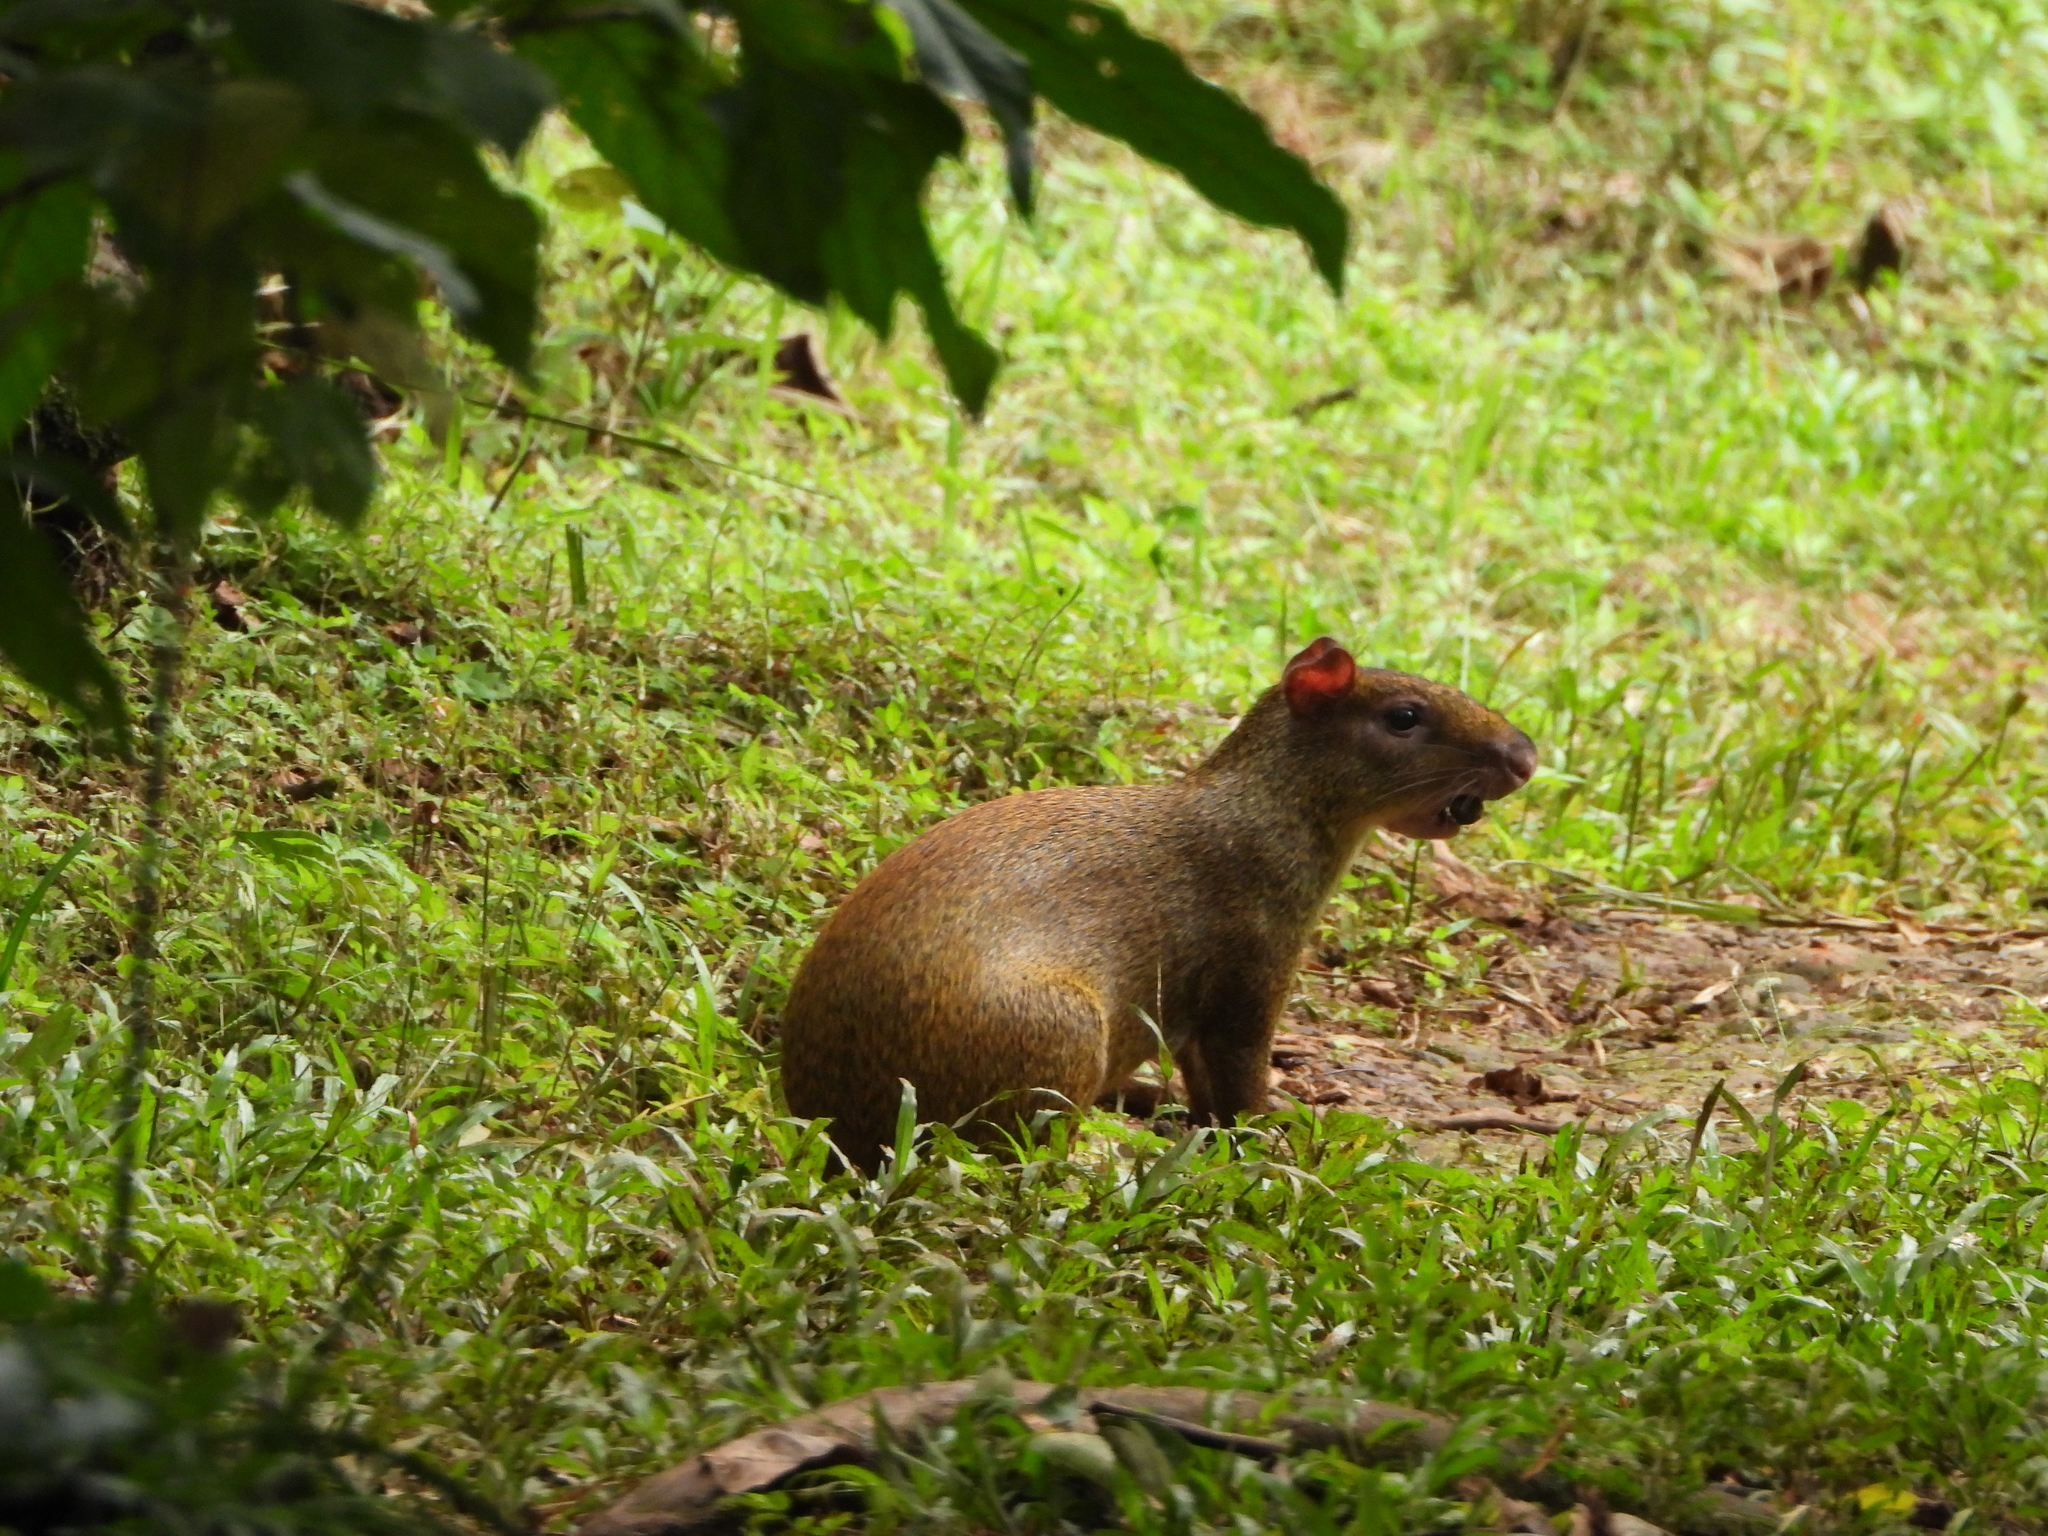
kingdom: Animalia
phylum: Chordata
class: Mammalia
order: Rodentia
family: Dasyproctidae
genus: Dasyprocta
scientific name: Dasyprocta punctata
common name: Central american agouti
